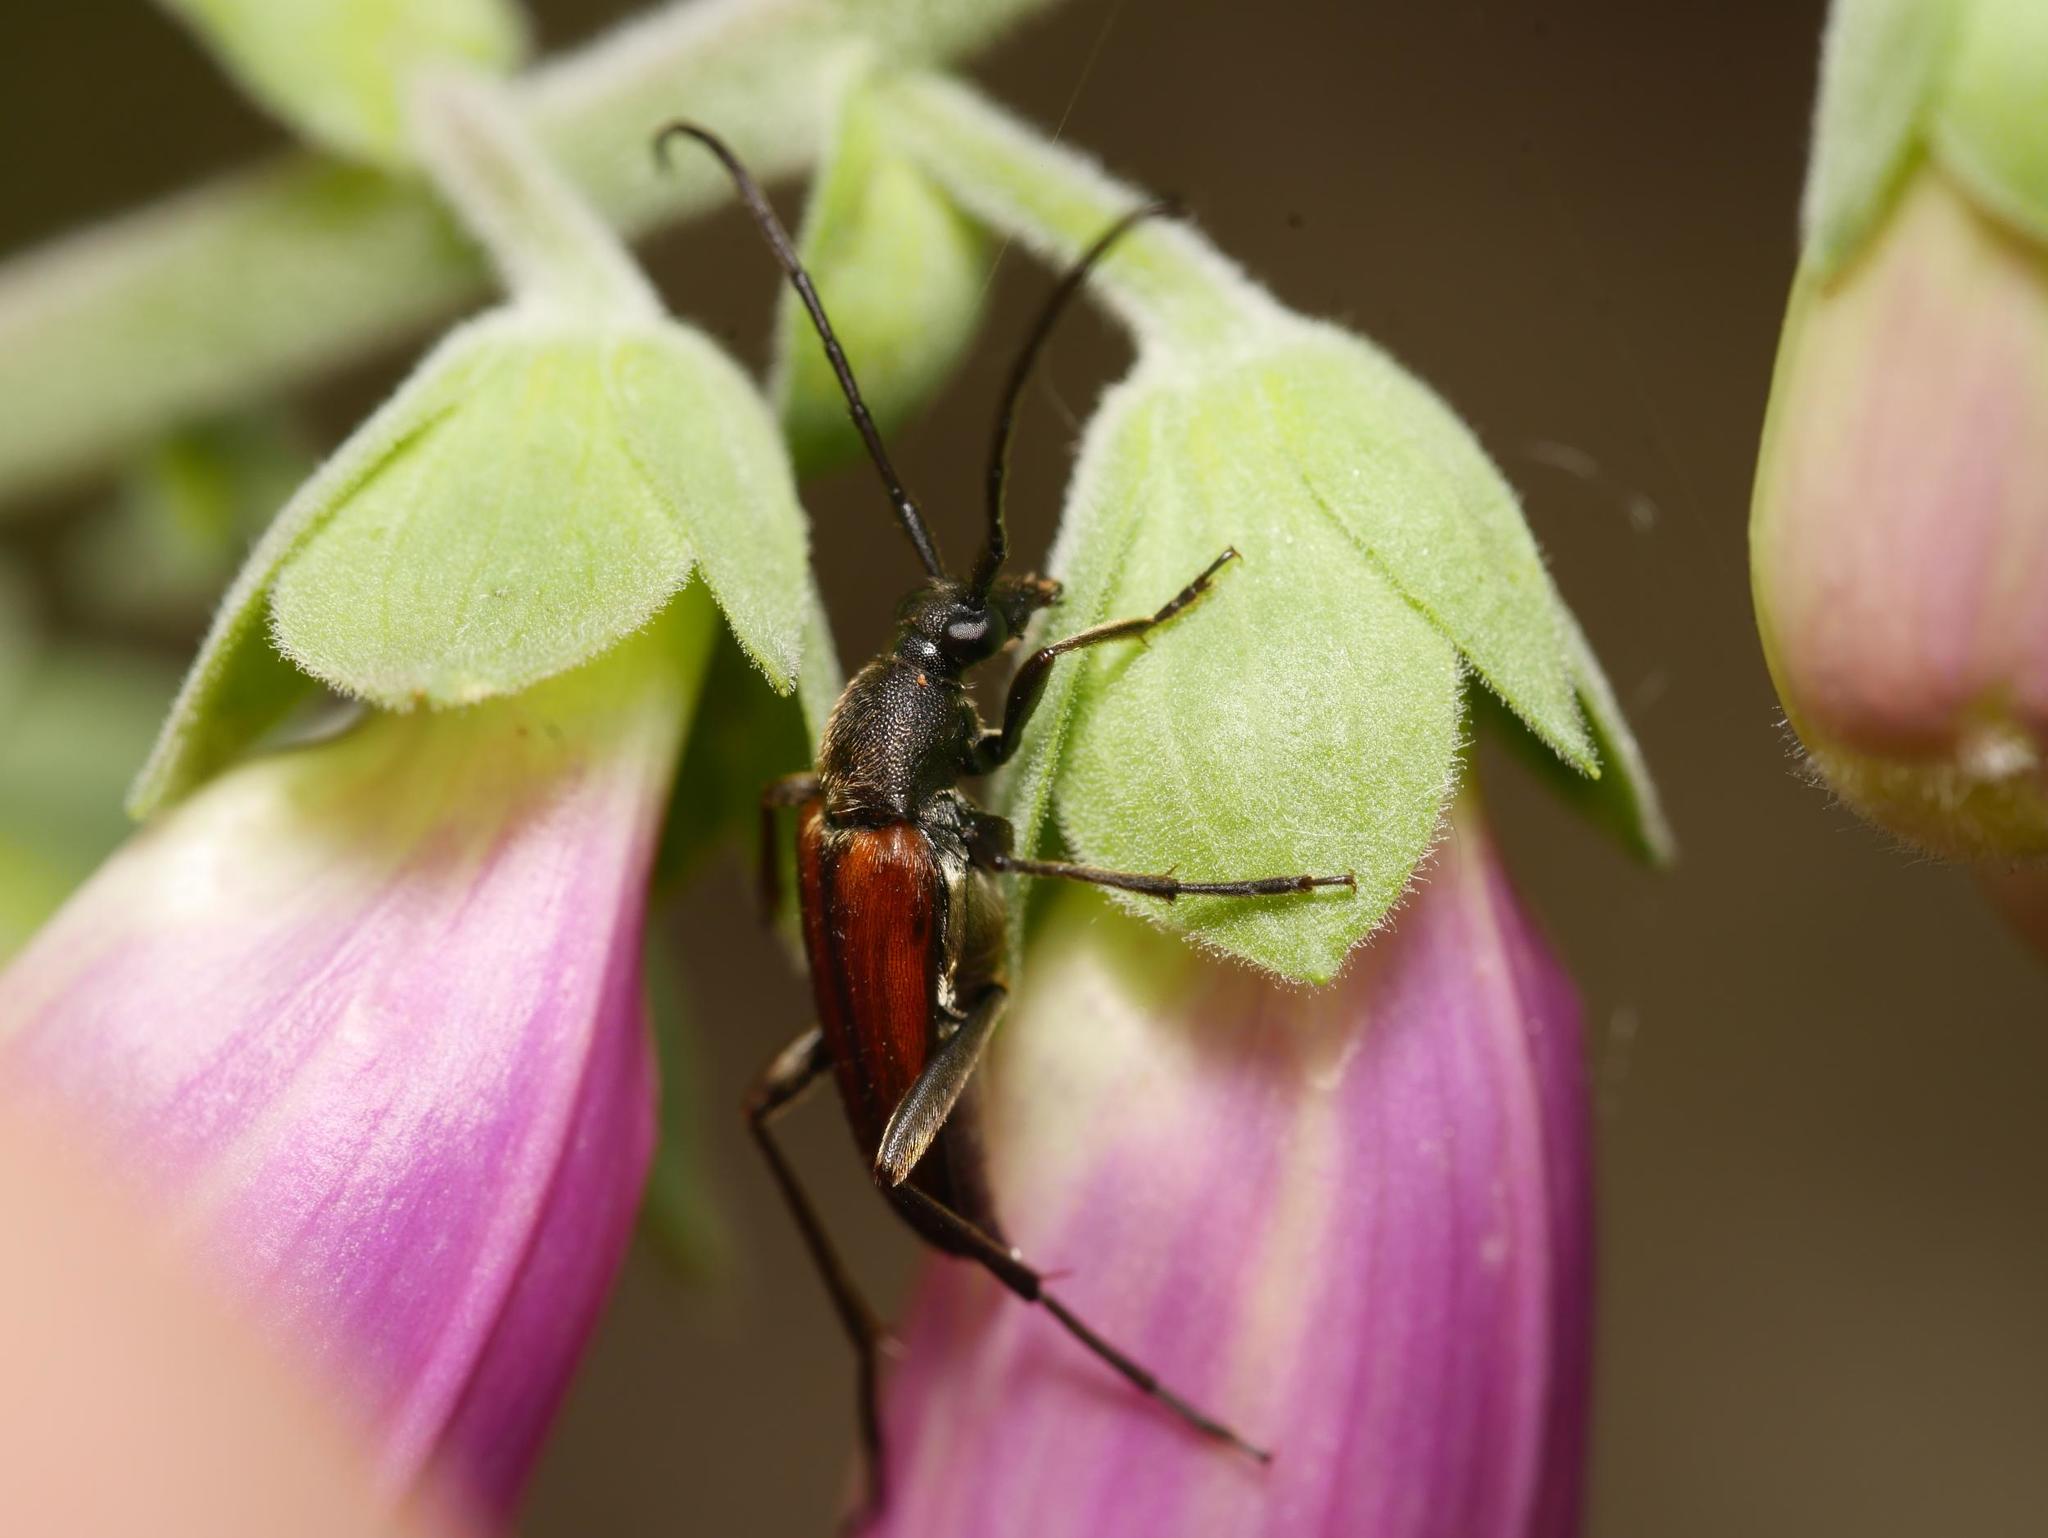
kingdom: Animalia
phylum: Arthropoda
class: Insecta
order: Coleoptera
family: Cerambycidae
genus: Stenurella
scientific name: Stenurella melanura
